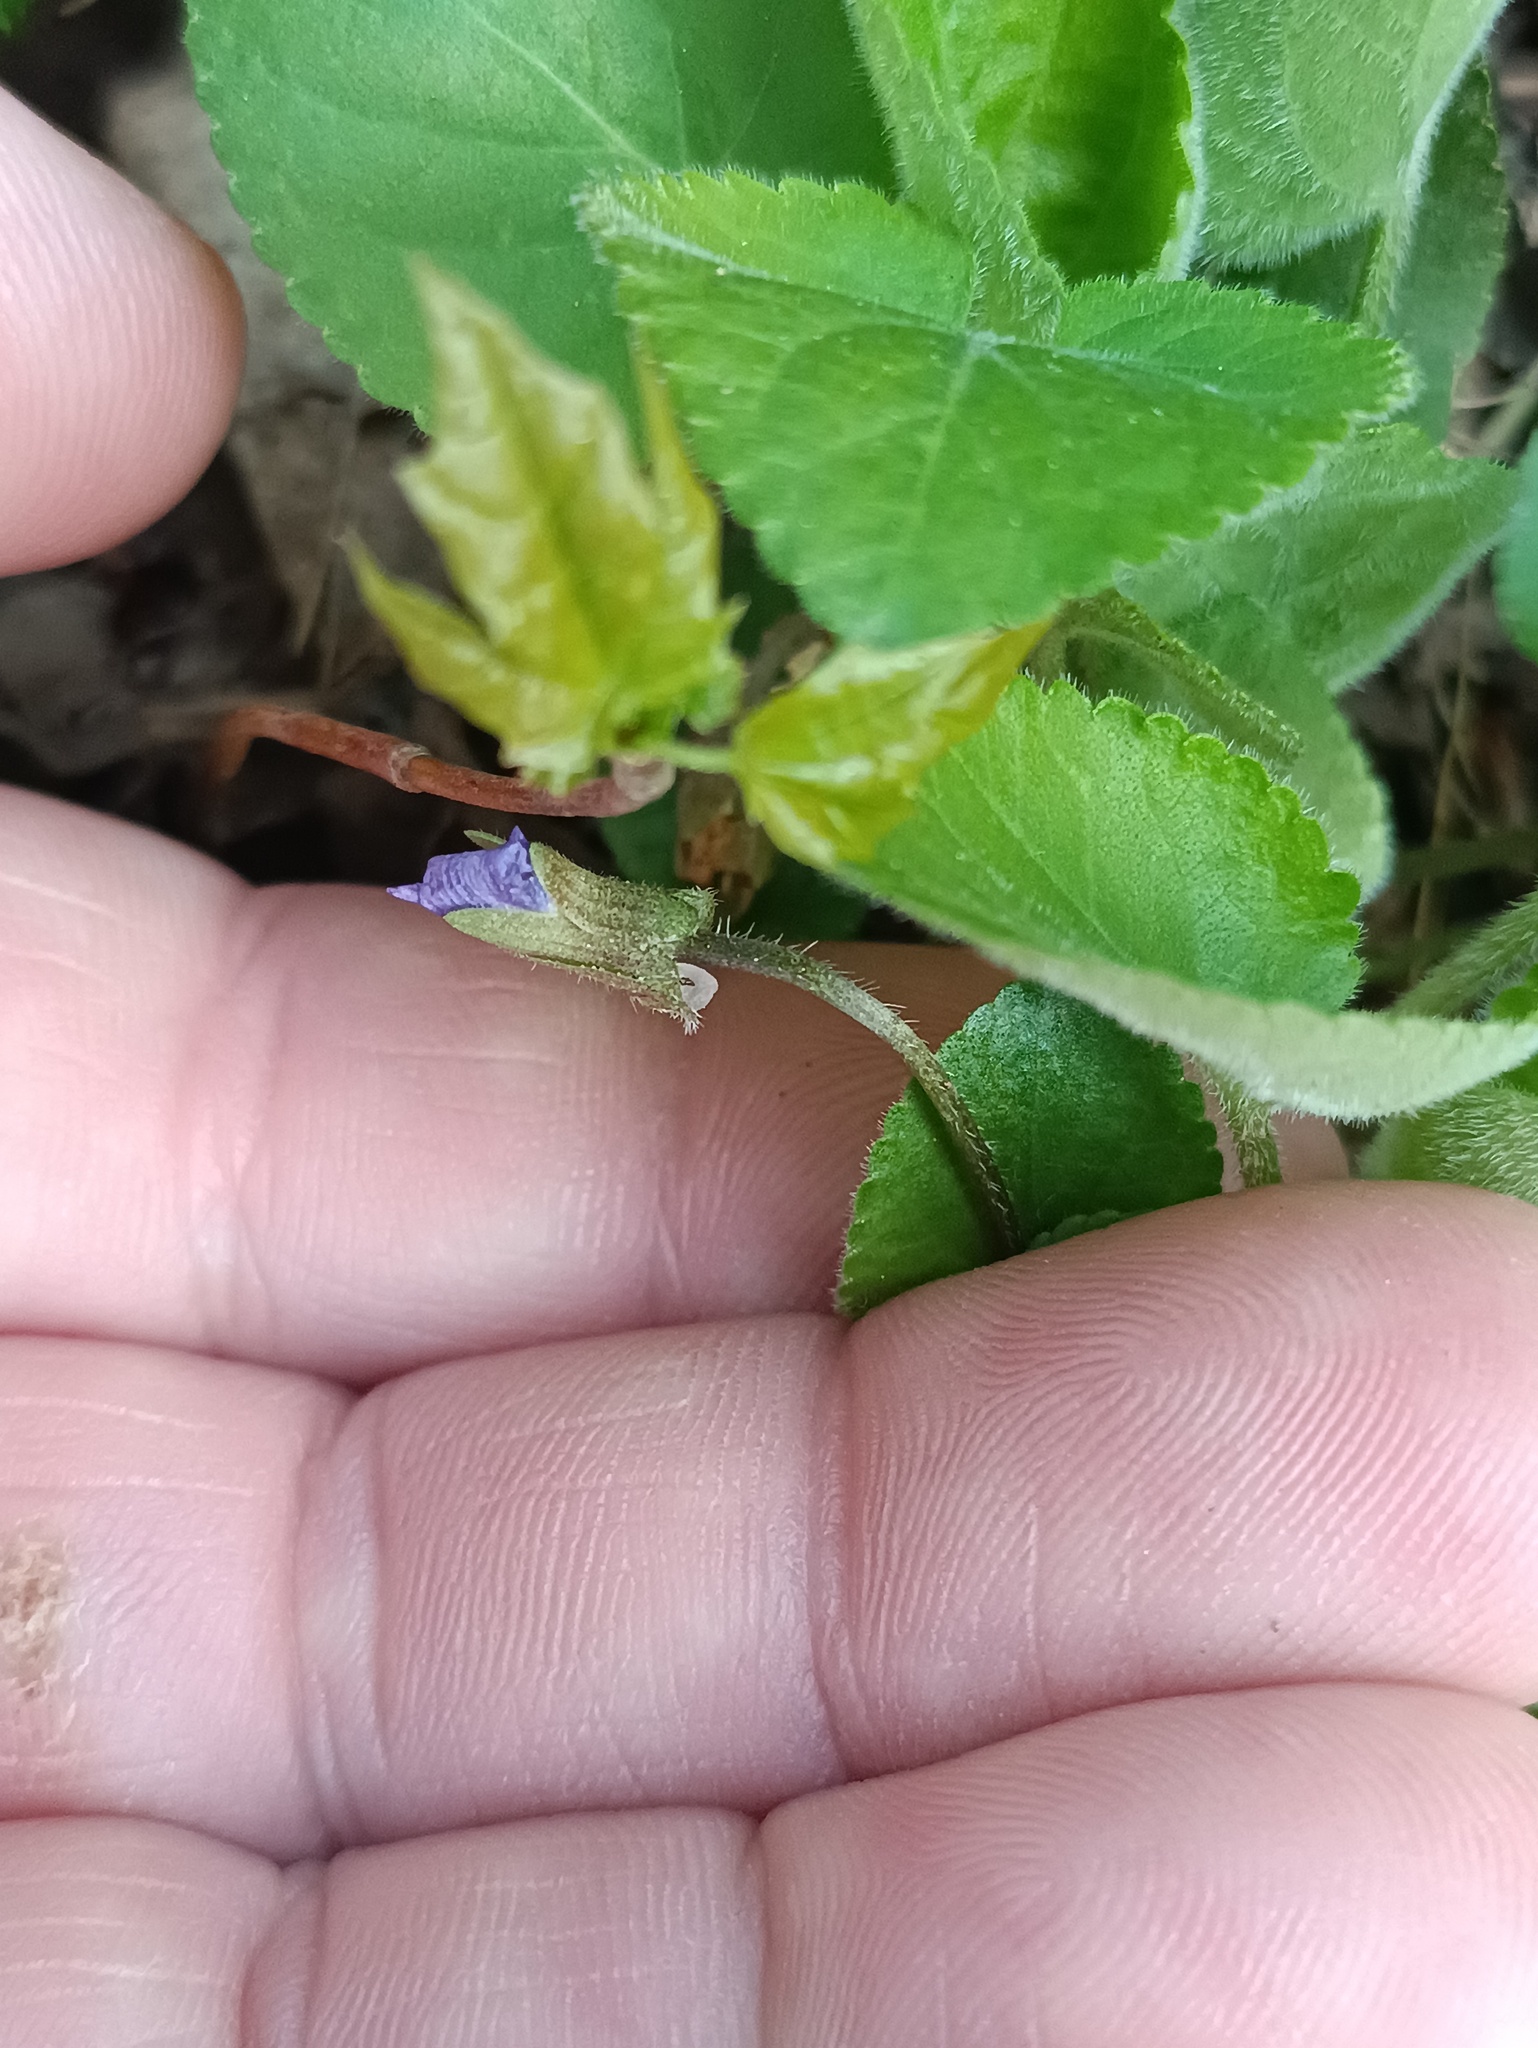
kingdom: Plantae
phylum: Tracheophyta
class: Magnoliopsida
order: Malpighiales
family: Violaceae
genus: Viola
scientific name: Viola collina
